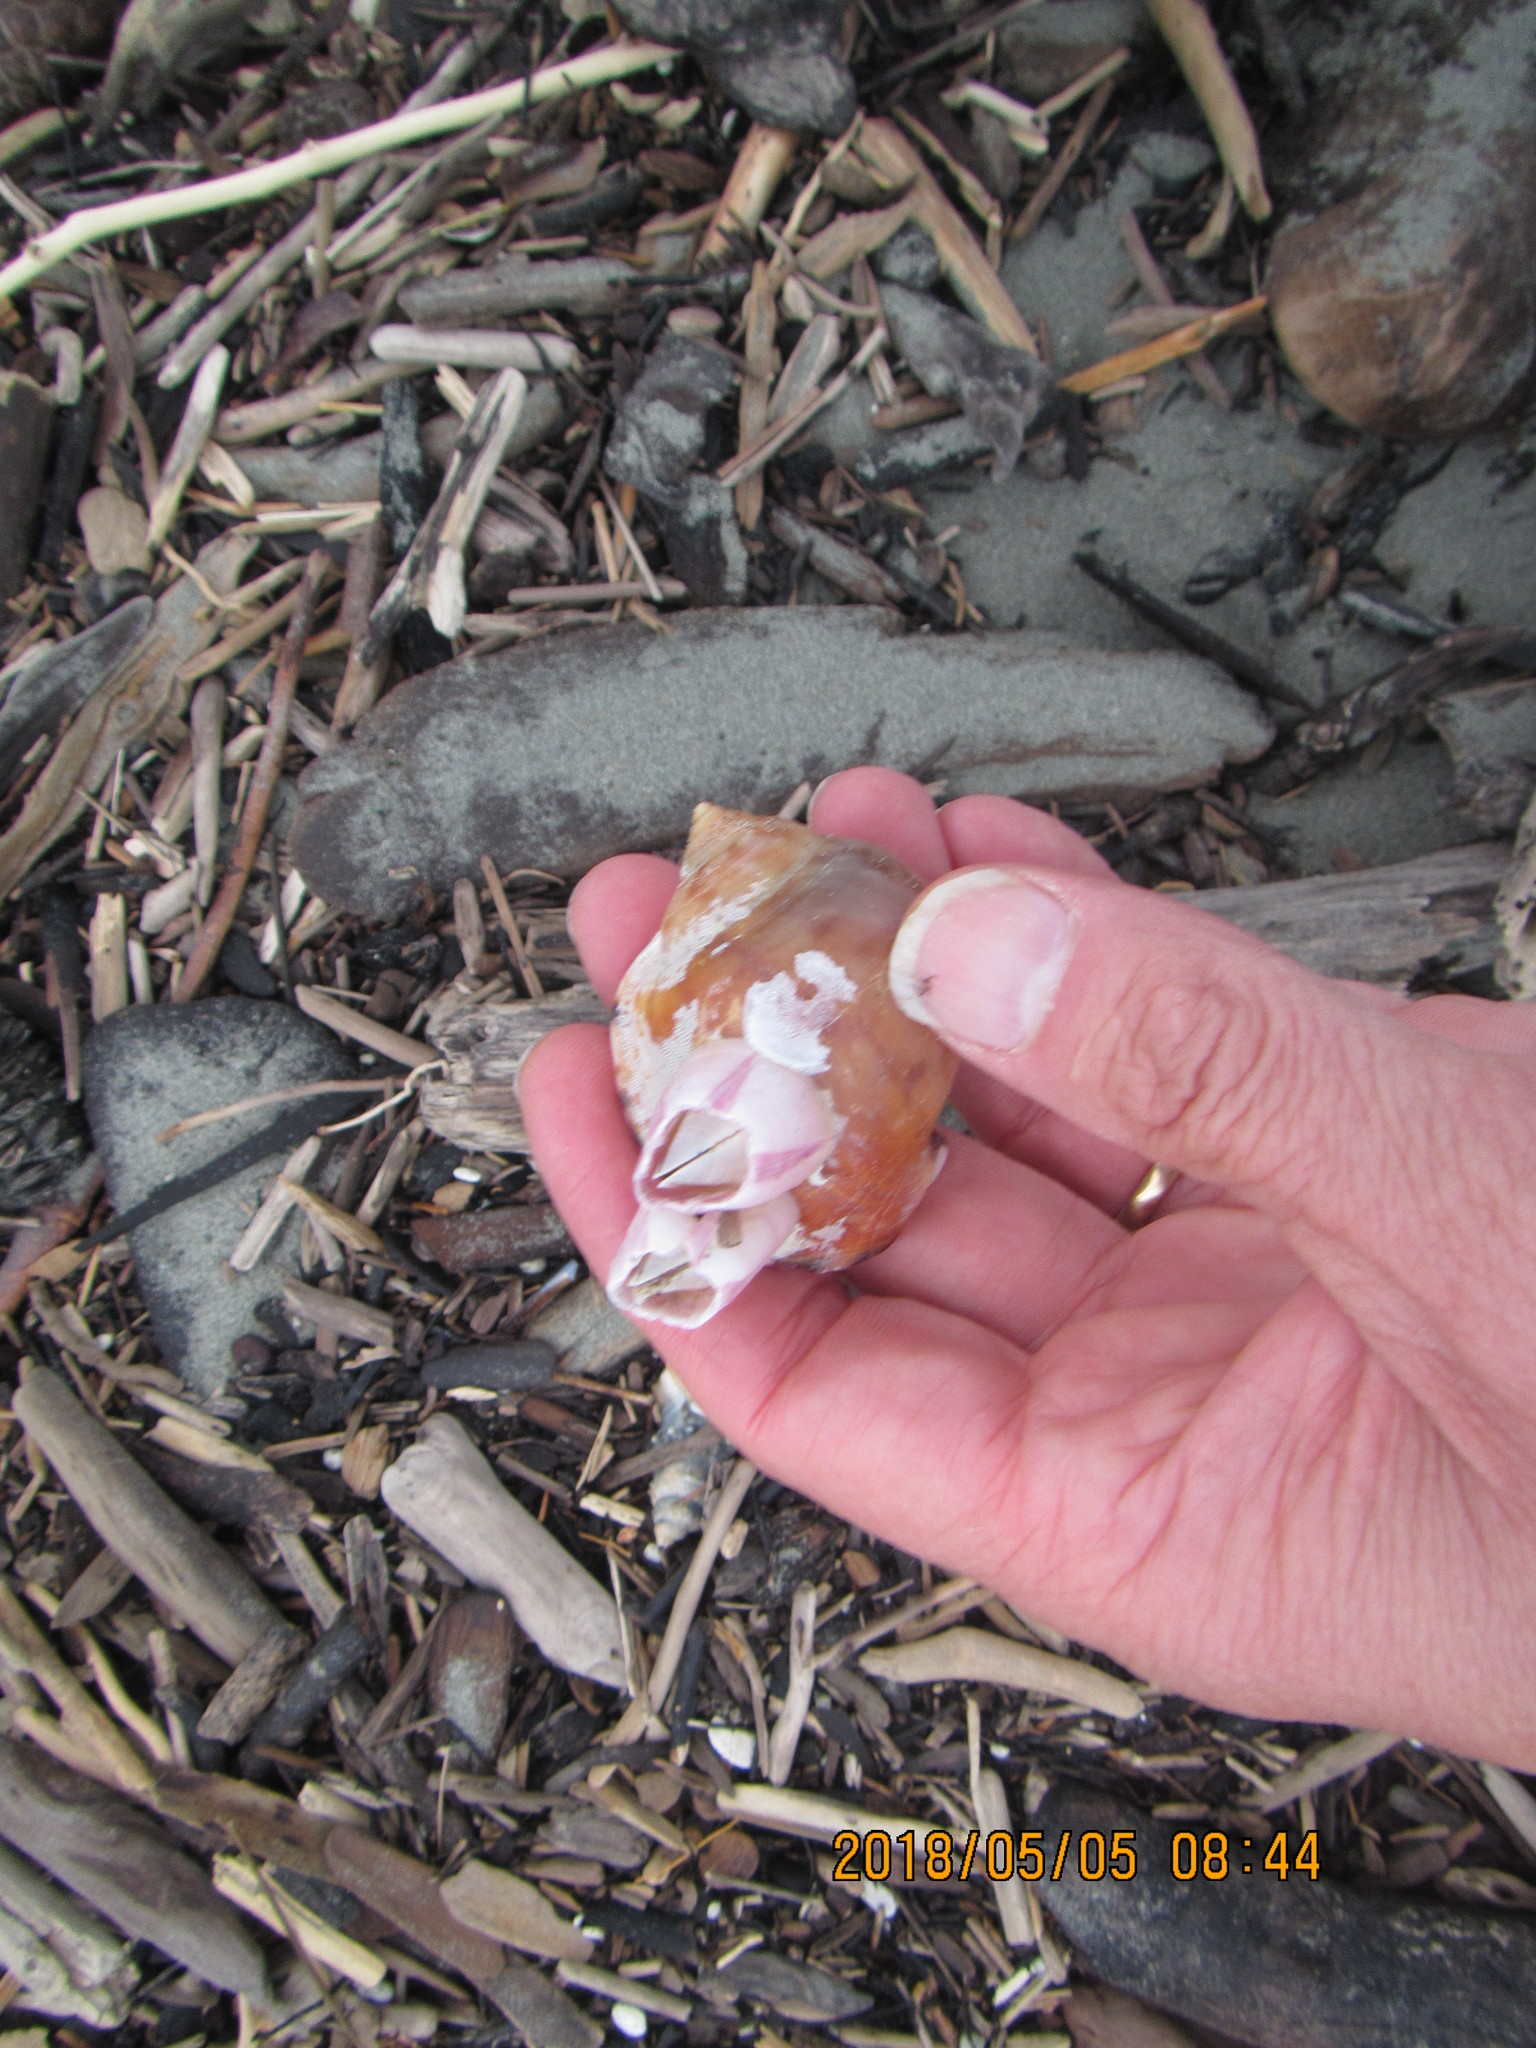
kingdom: Animalia
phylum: Arthropoda
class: Maxillopoda
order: Sessilia
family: Balanidae
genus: Notomegabalanus
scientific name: Notomegabalanus decorus
